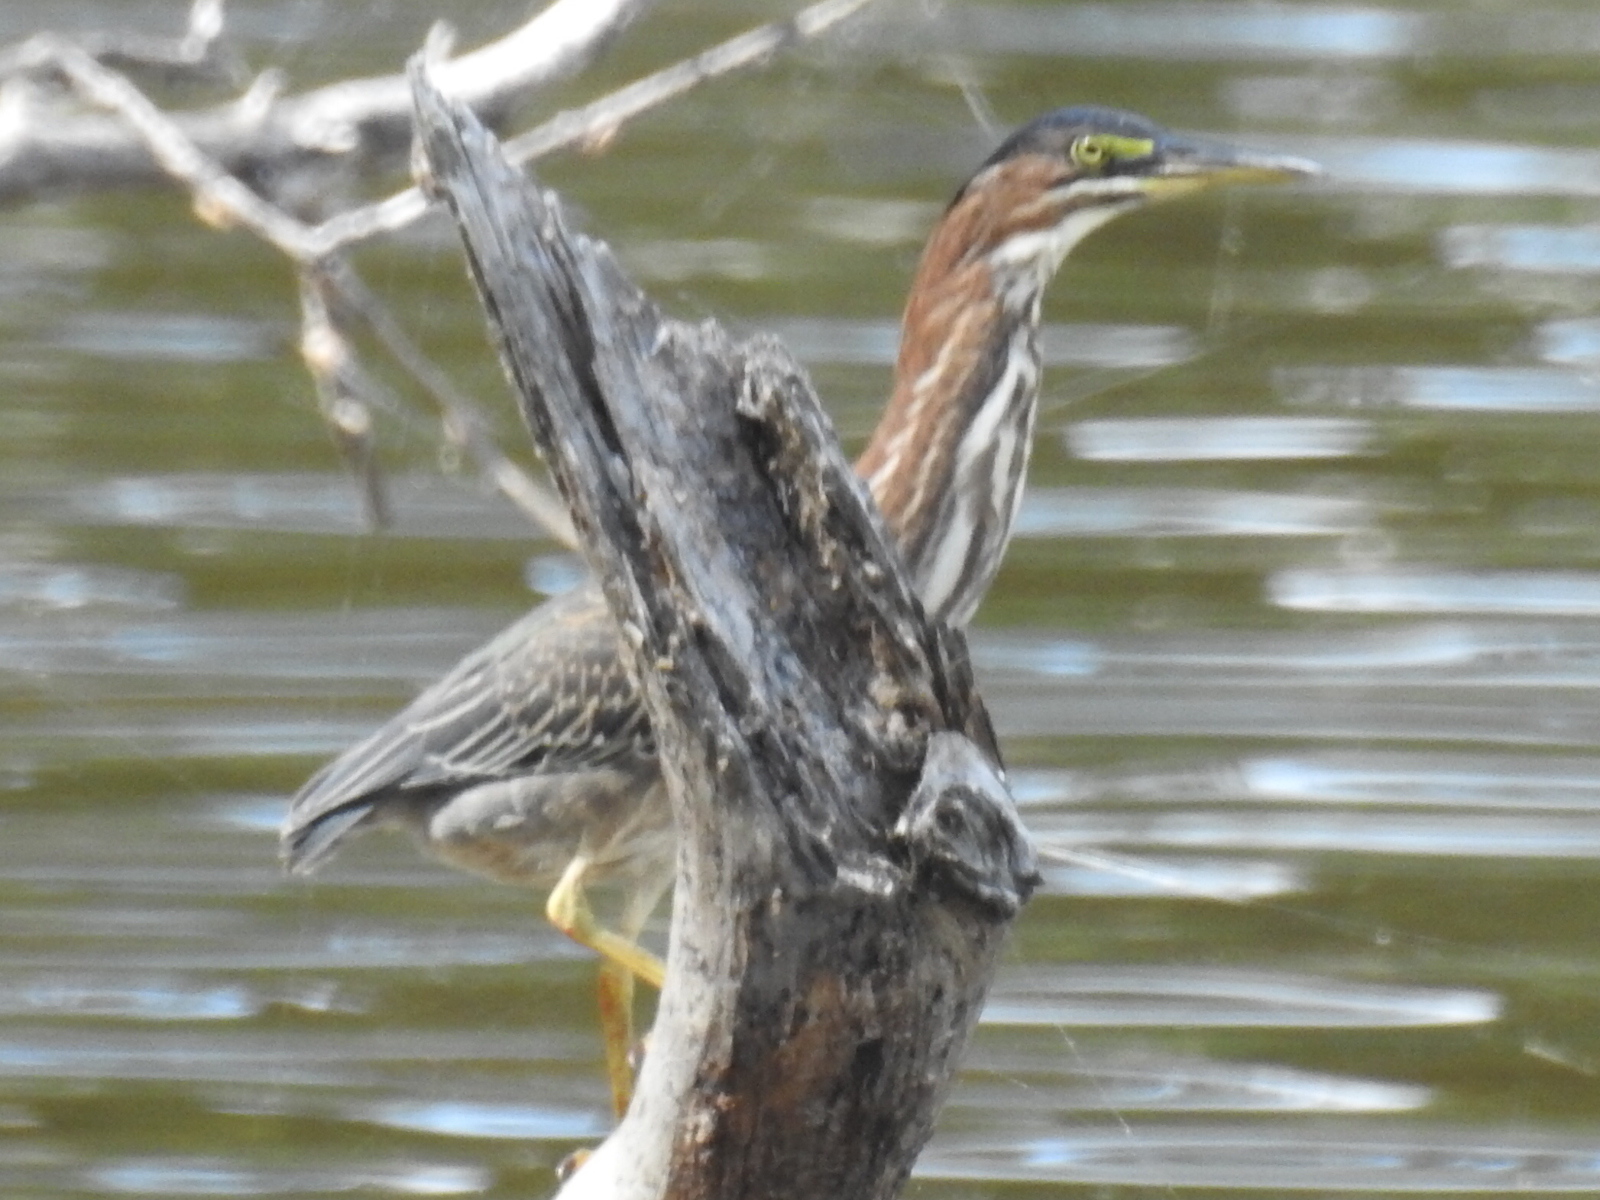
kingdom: Animalia
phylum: Chordata
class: Aves
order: Pelecaniformes
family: Ardeidae
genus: Butorides
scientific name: Butorides virescens
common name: Green heron
